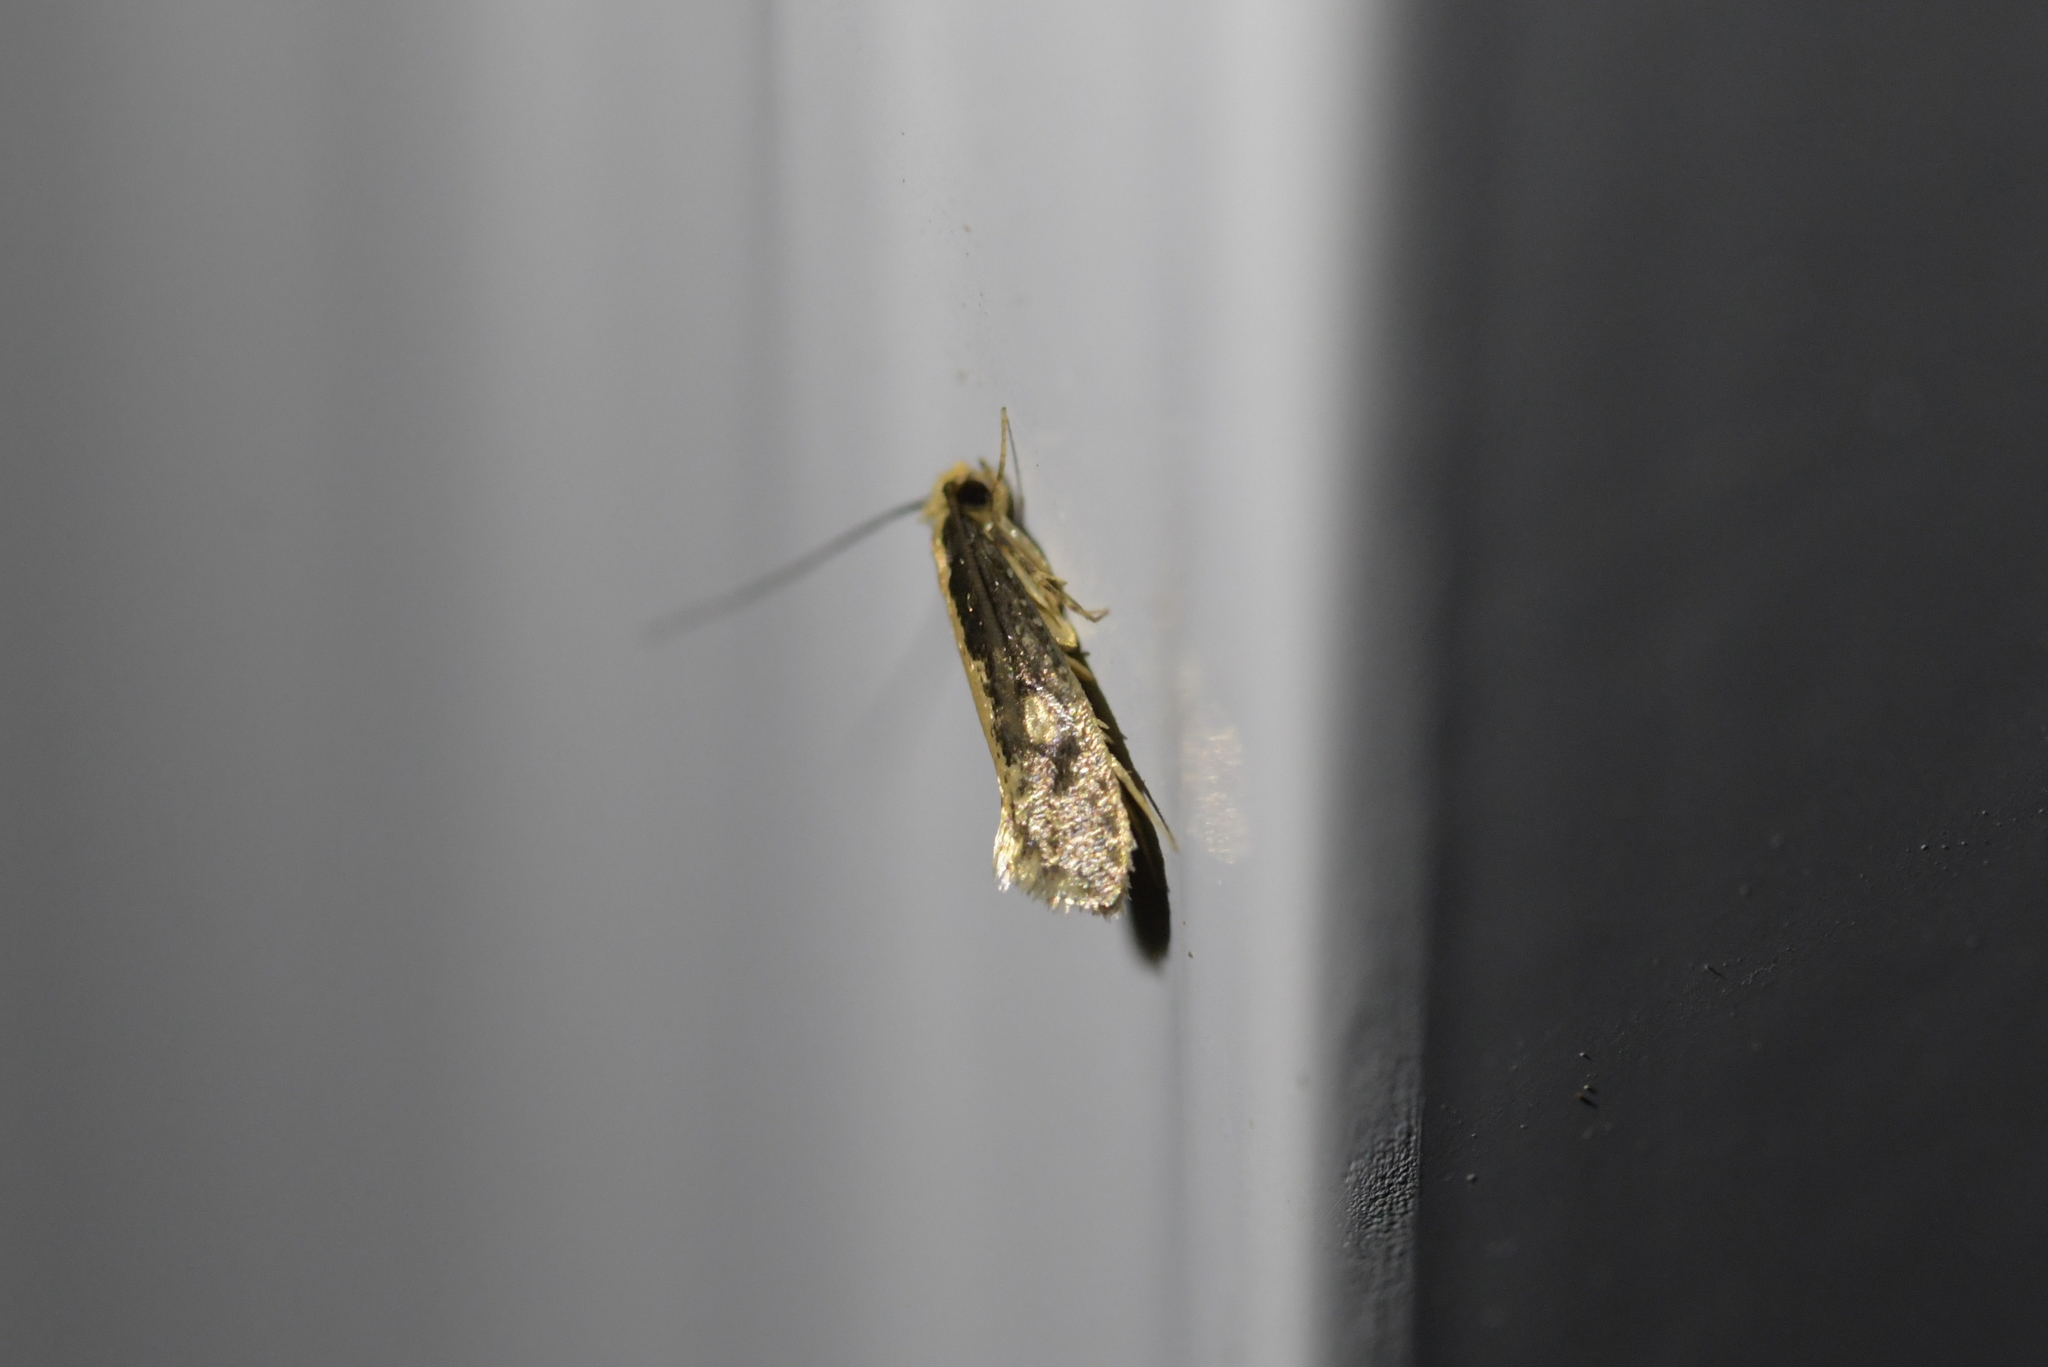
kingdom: Animalia
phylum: Arthropoda
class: Insecta
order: Lepidoptera
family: Tineidae
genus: Monopis
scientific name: Monopis crocicapitella
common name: Moth
